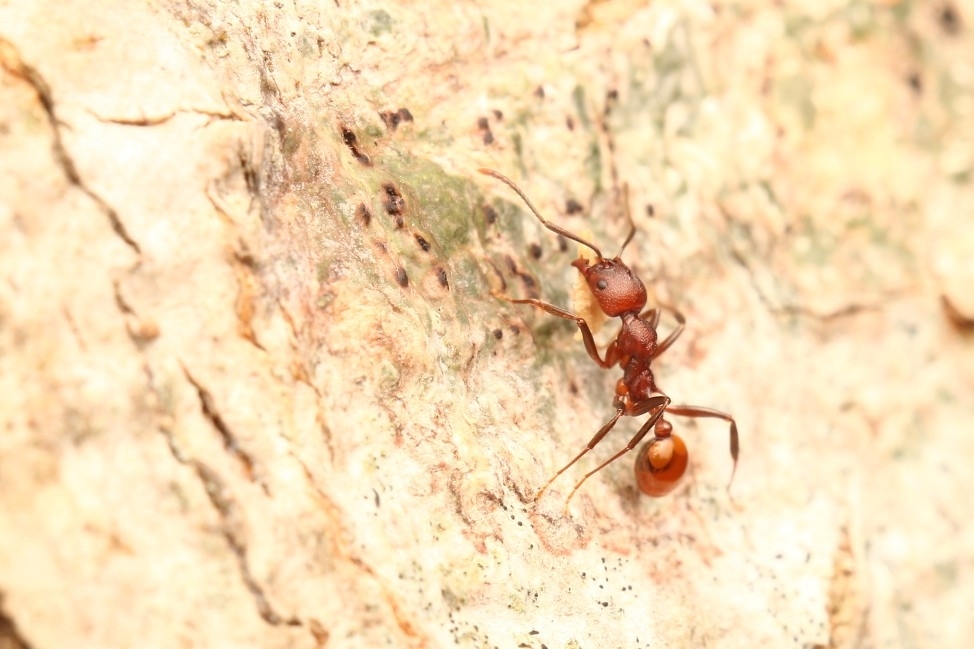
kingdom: Animalia
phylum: Arthropoda
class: Insecta
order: Hymenoptera
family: Formicidae
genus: Aphaenogaster
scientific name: Aphaenogaster tennesseensis
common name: Tennessee thread-waisted ant
